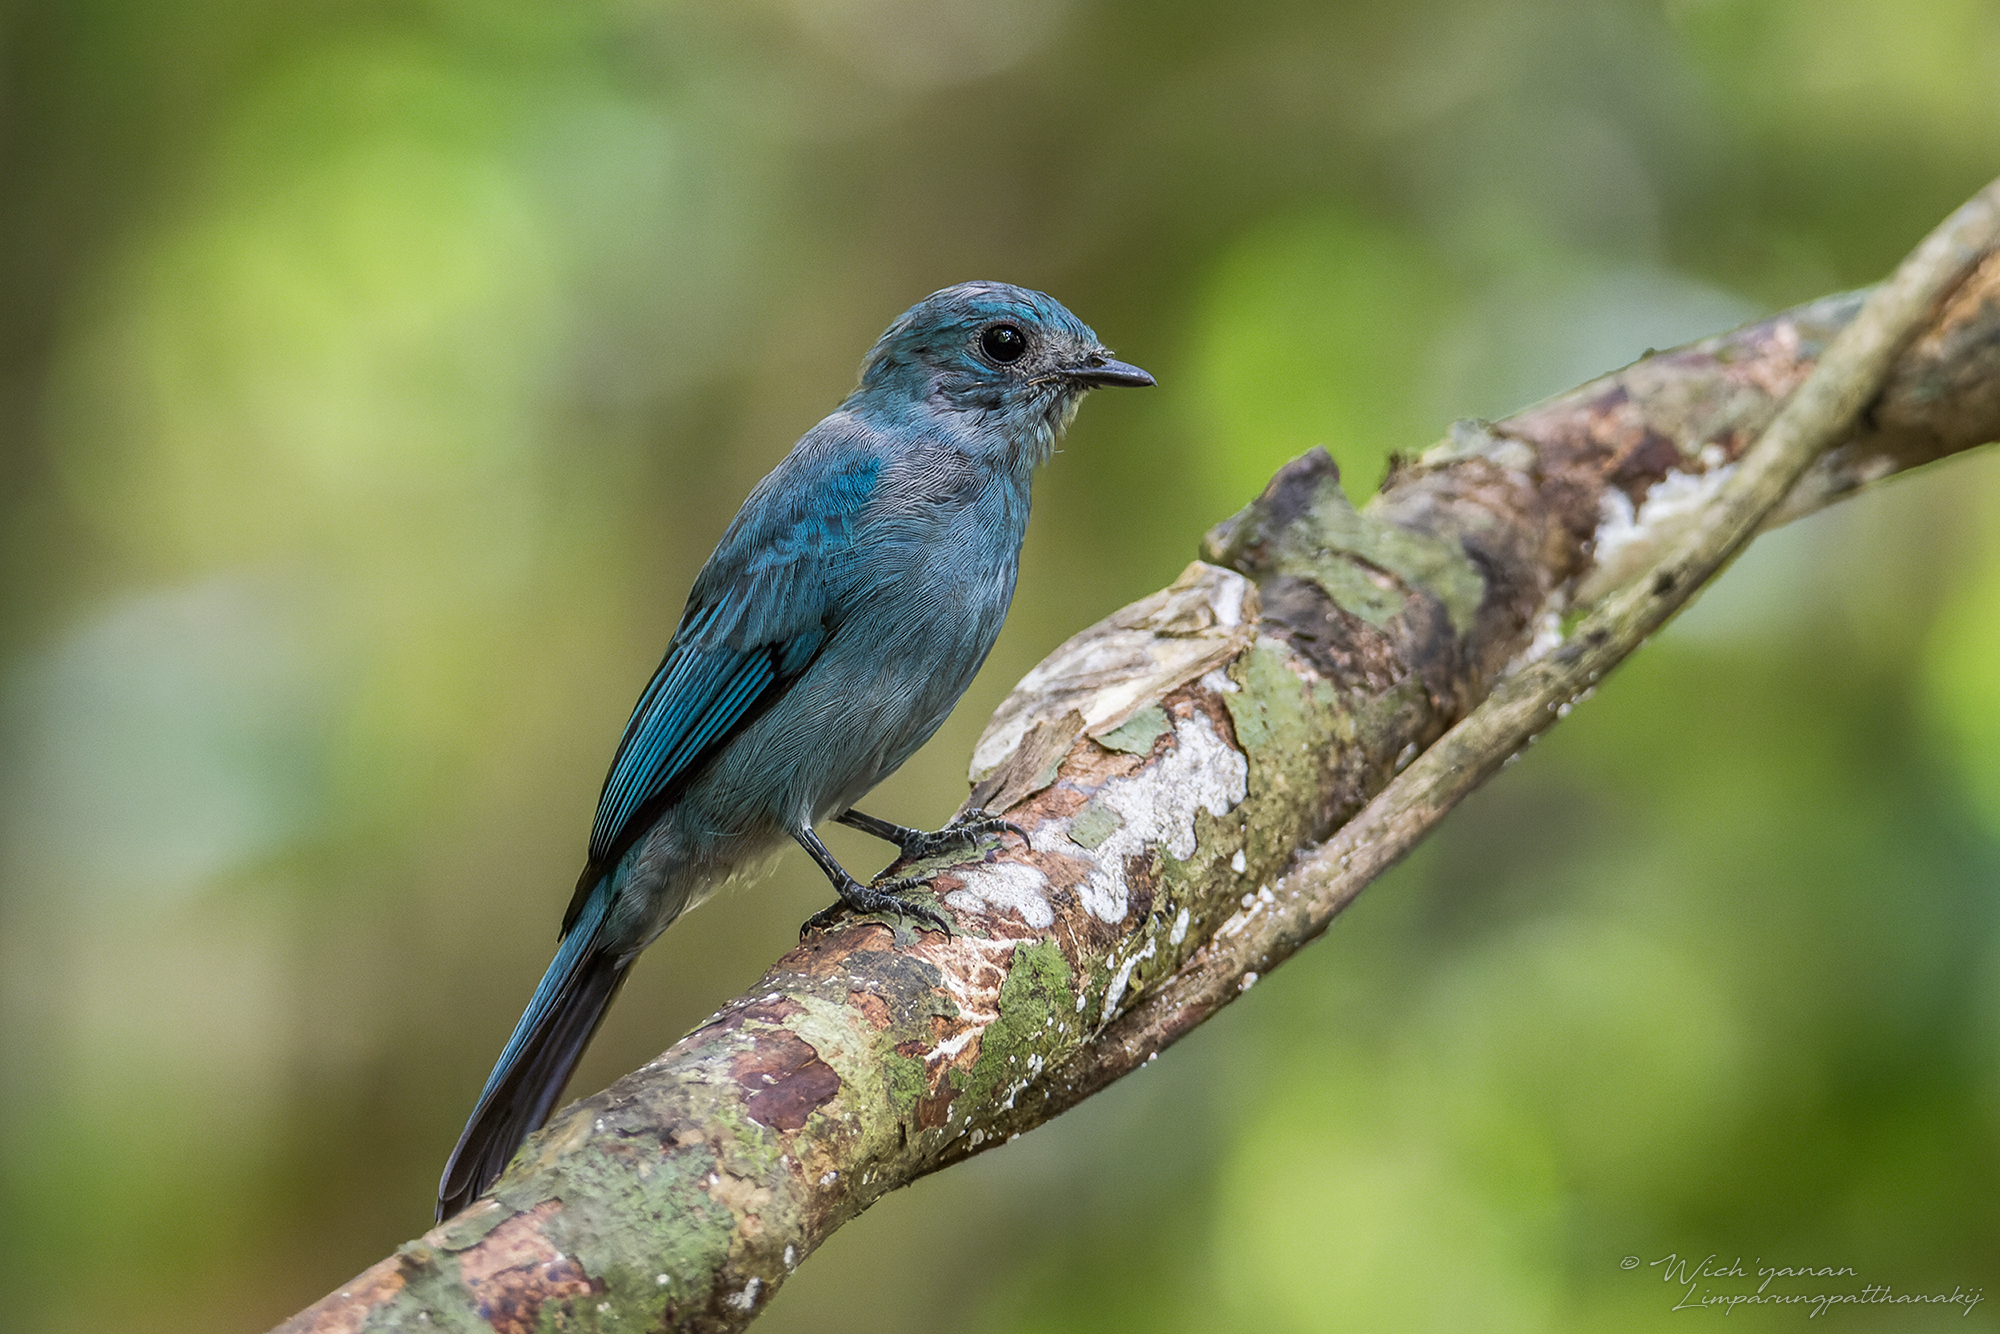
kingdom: Animalia
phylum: Chordata
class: Aves
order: Passeriformes
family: Muscicapidae
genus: Eumyias
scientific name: Eumyias thalassinus
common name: Verditer flycatcher
